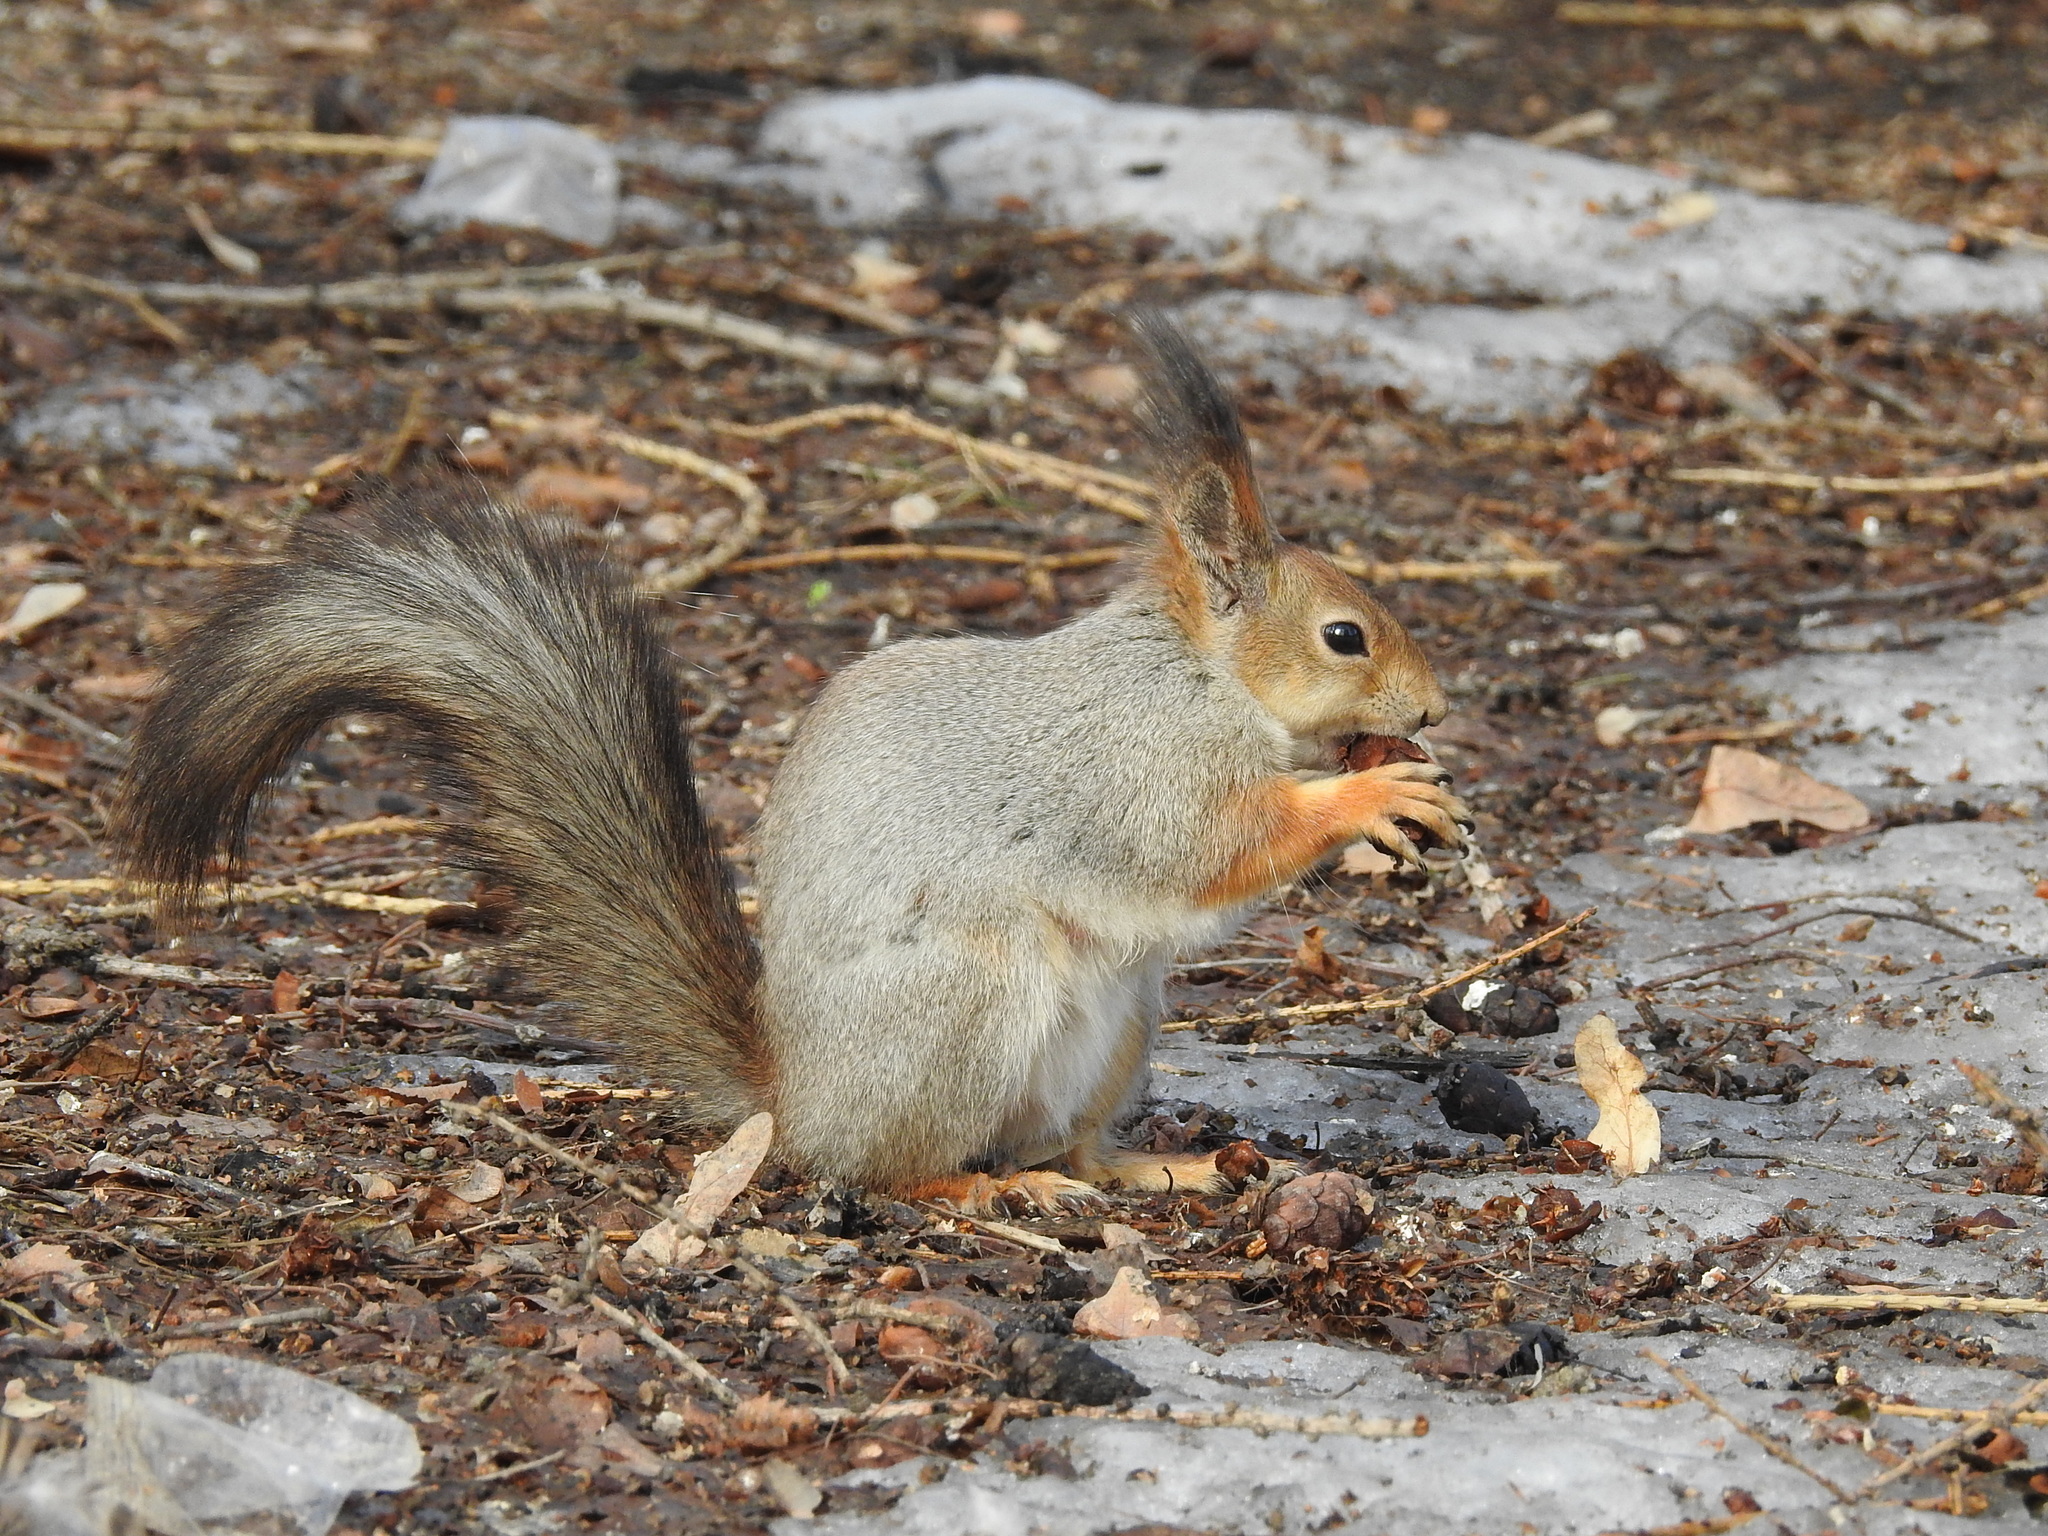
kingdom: Animalia
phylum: Chordata
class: Mammalia
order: Rodentia
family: Sciuridae
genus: Sciurus
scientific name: Sciurus vulgaris
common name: Eurasian red squirrel
